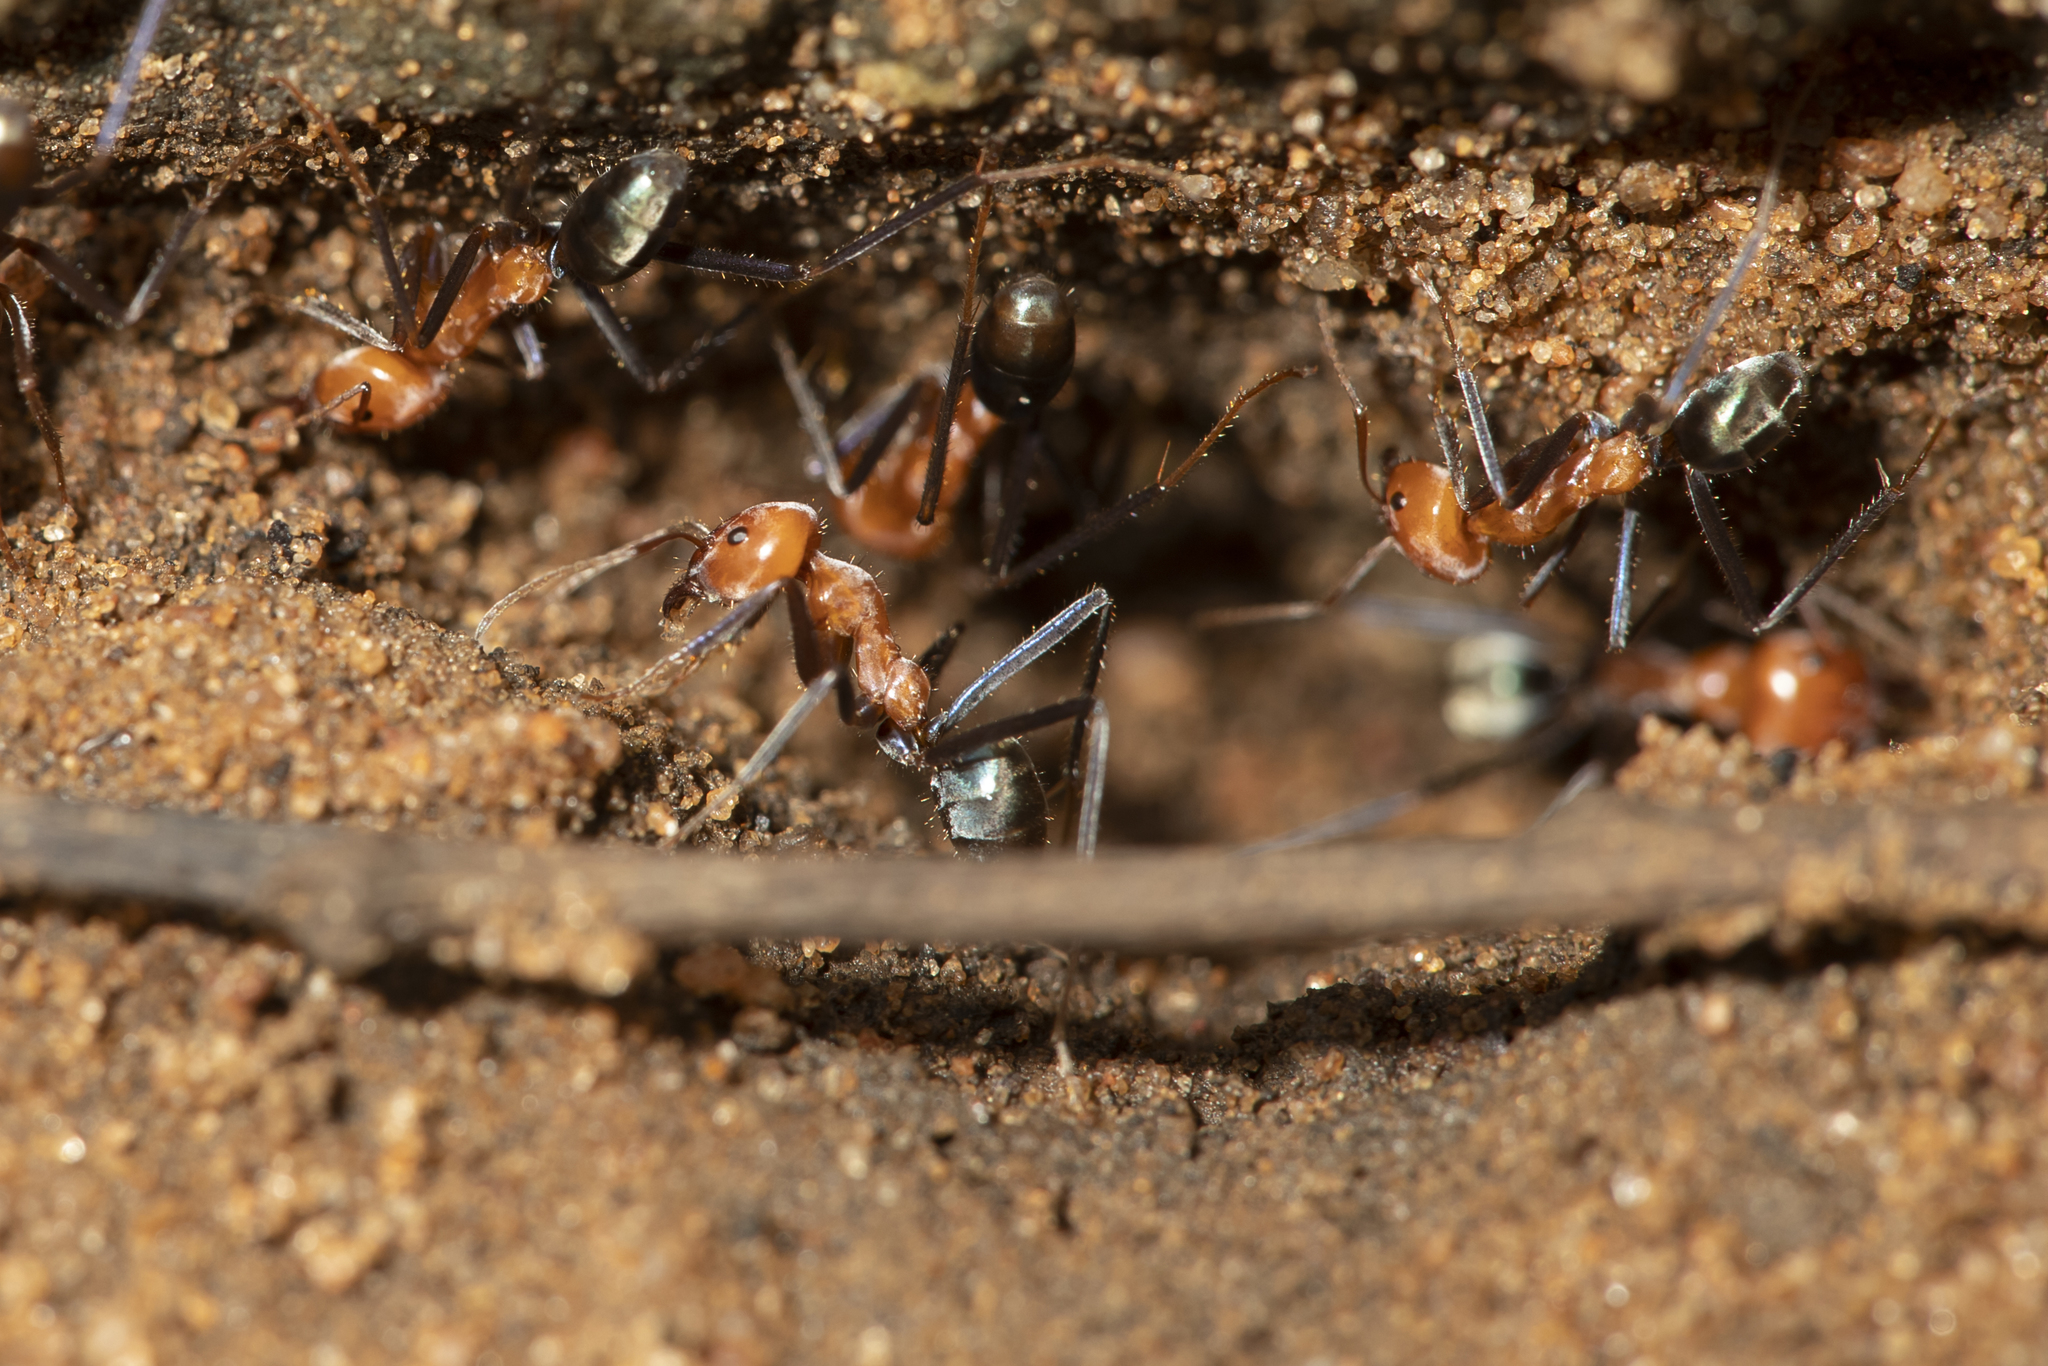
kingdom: Animalia
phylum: Arthropoda
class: Insecta
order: Hymenoptera
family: Formicidae
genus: Iridomyrmex
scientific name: Iridomyrmex sanguineus
